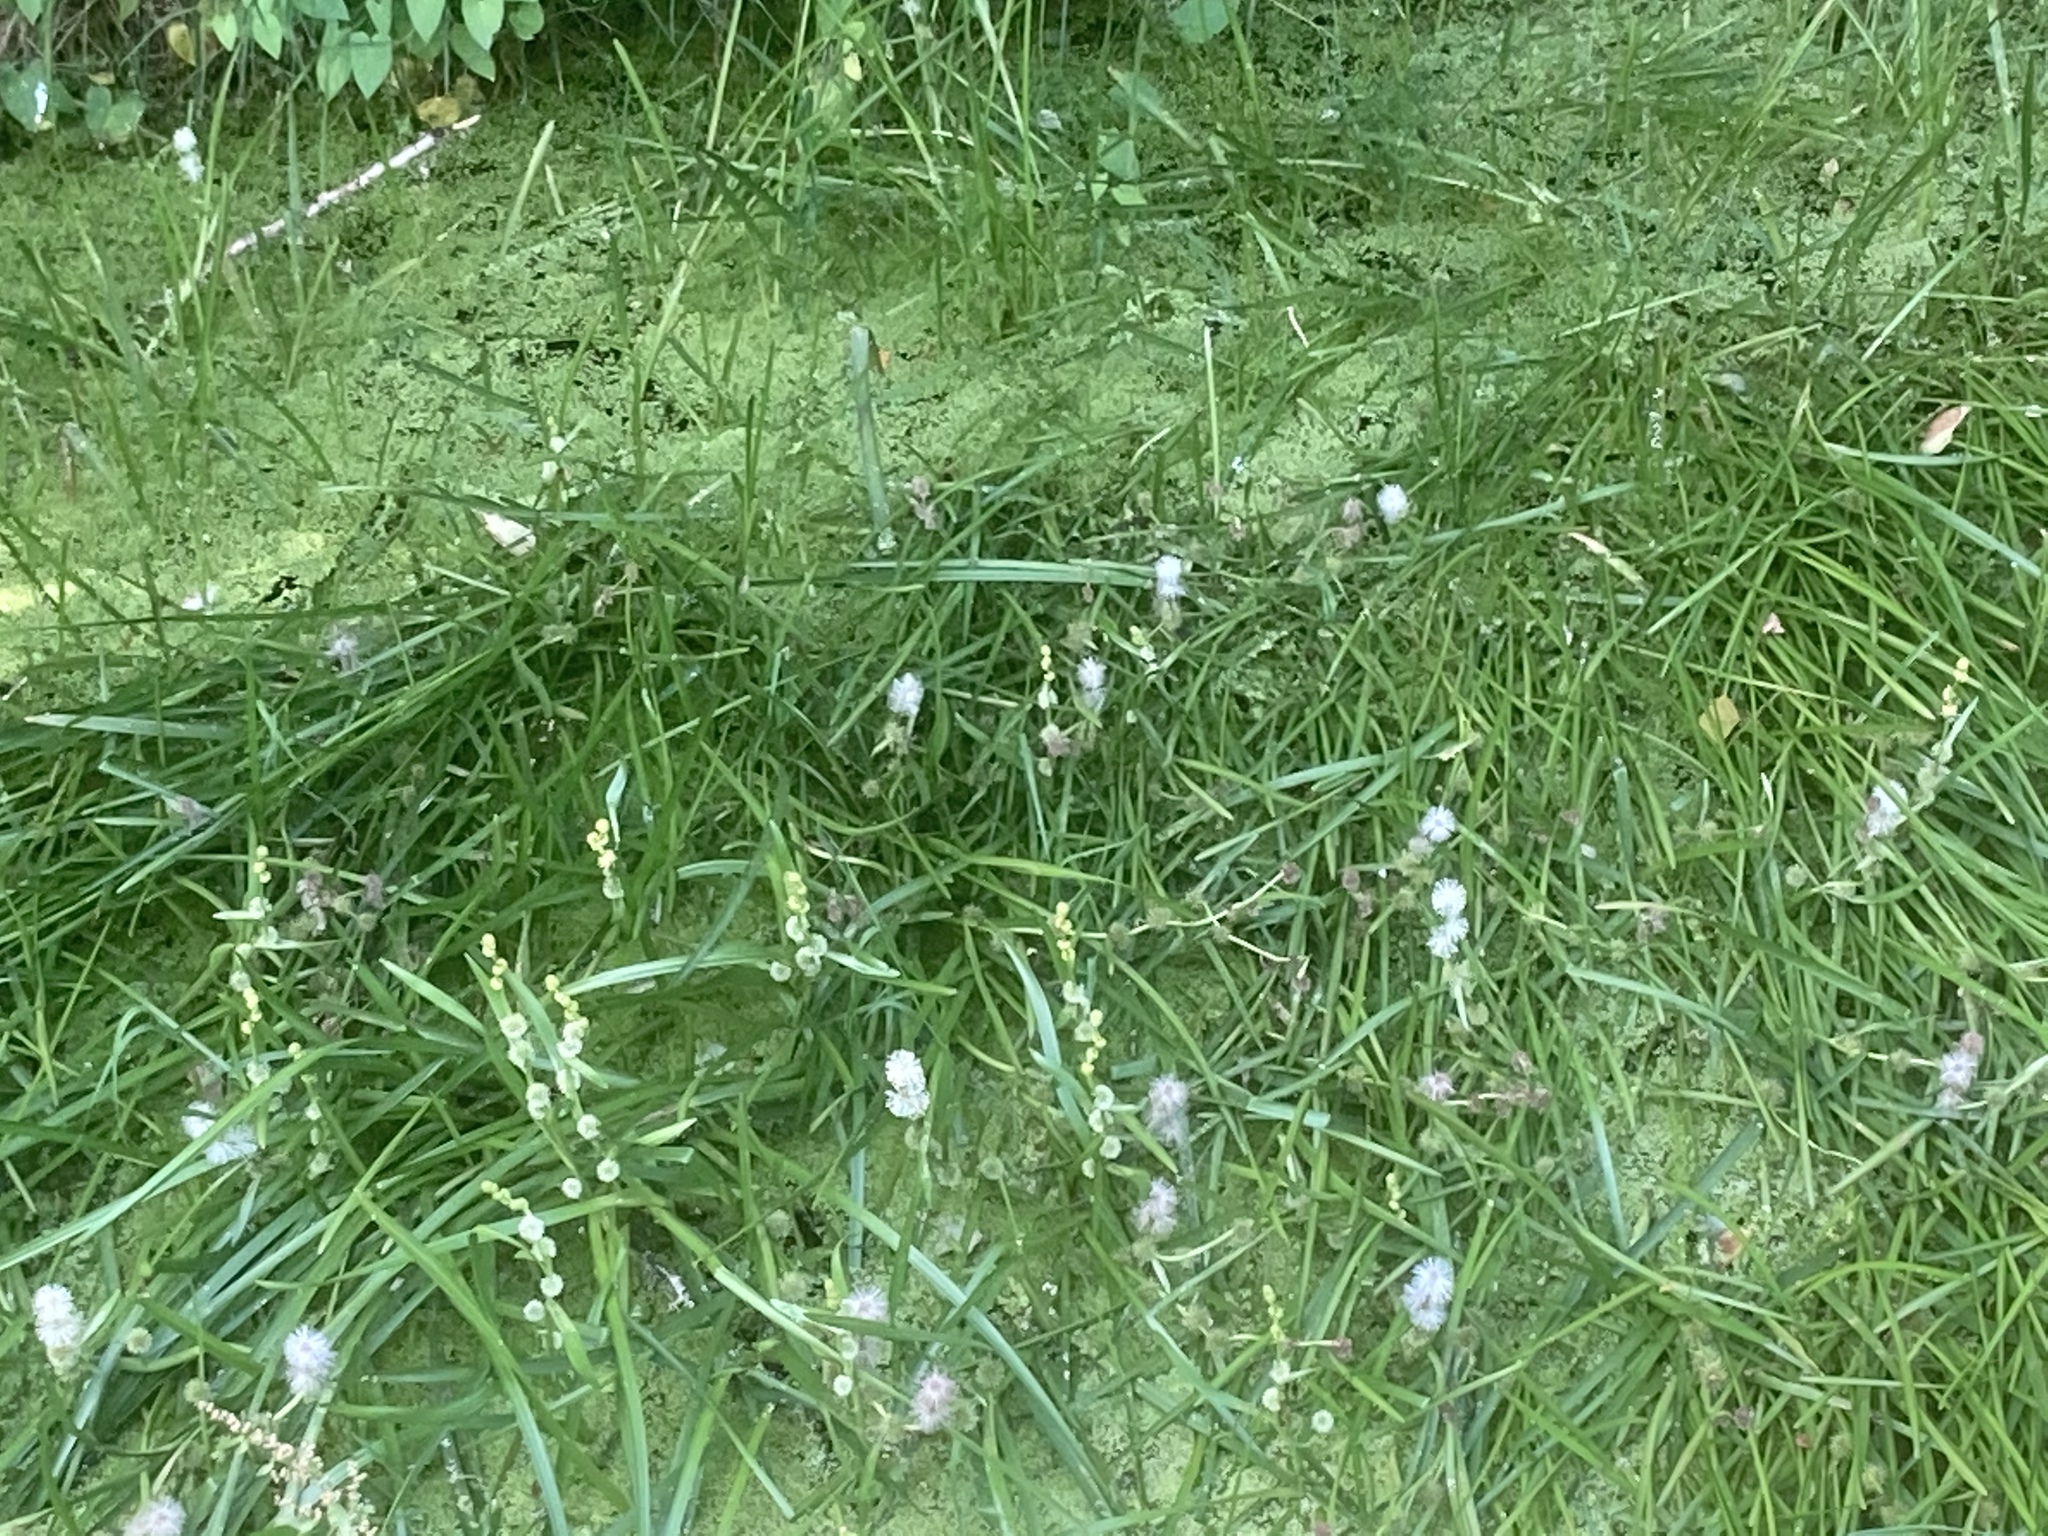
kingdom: Plantae
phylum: Tracheophyta
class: Liliopsida
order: Poales
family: Typhaceae
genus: Sparganium
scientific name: Sparganium emersum
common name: Unbranched bur-reed
